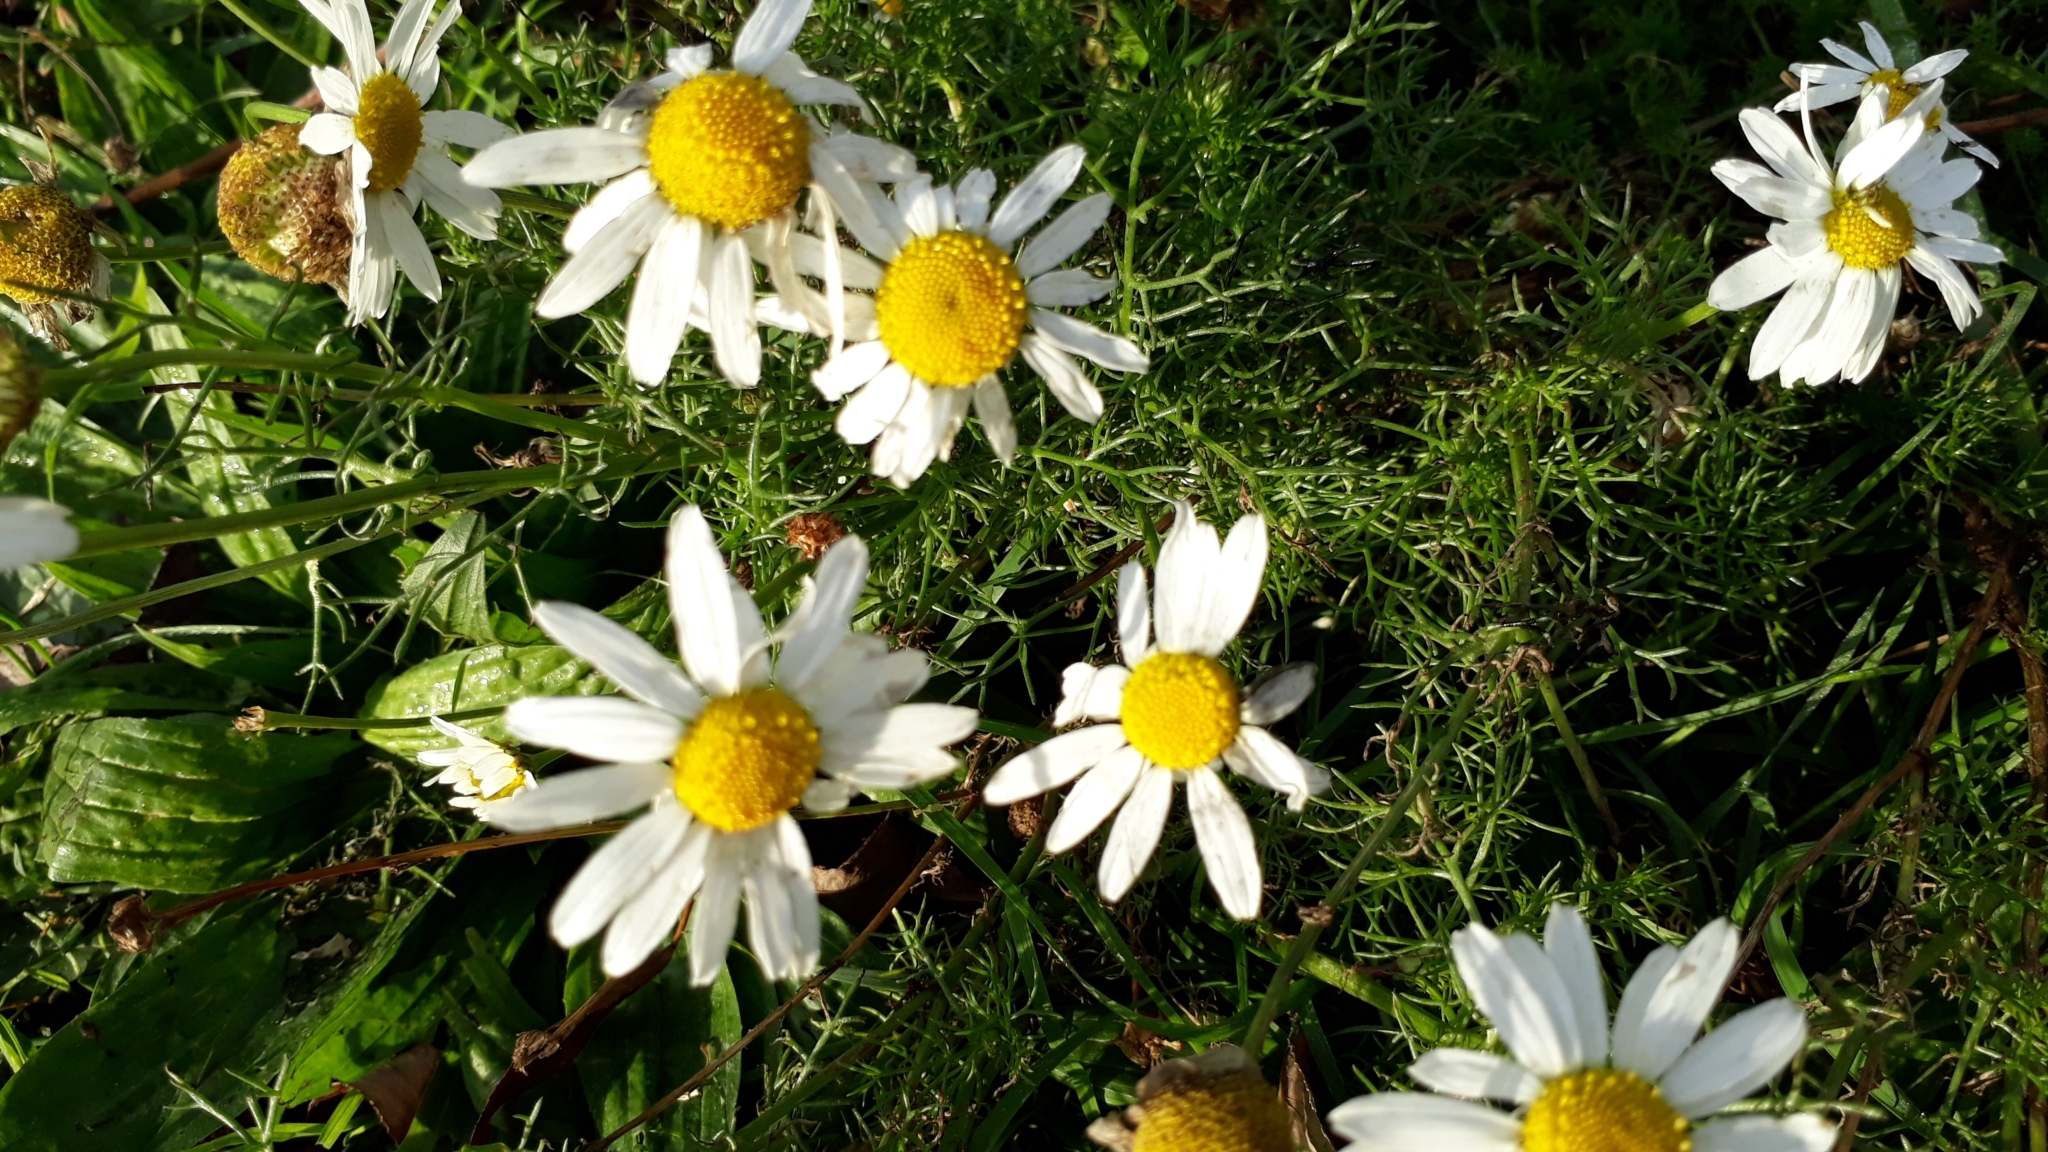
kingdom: Plantae
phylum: Tracheophyta
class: Magnoliopsida
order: Asterales
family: Asteraceae
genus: Tripleurospermum
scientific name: Tripleurospermum inodorum
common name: Scentless mayweed
